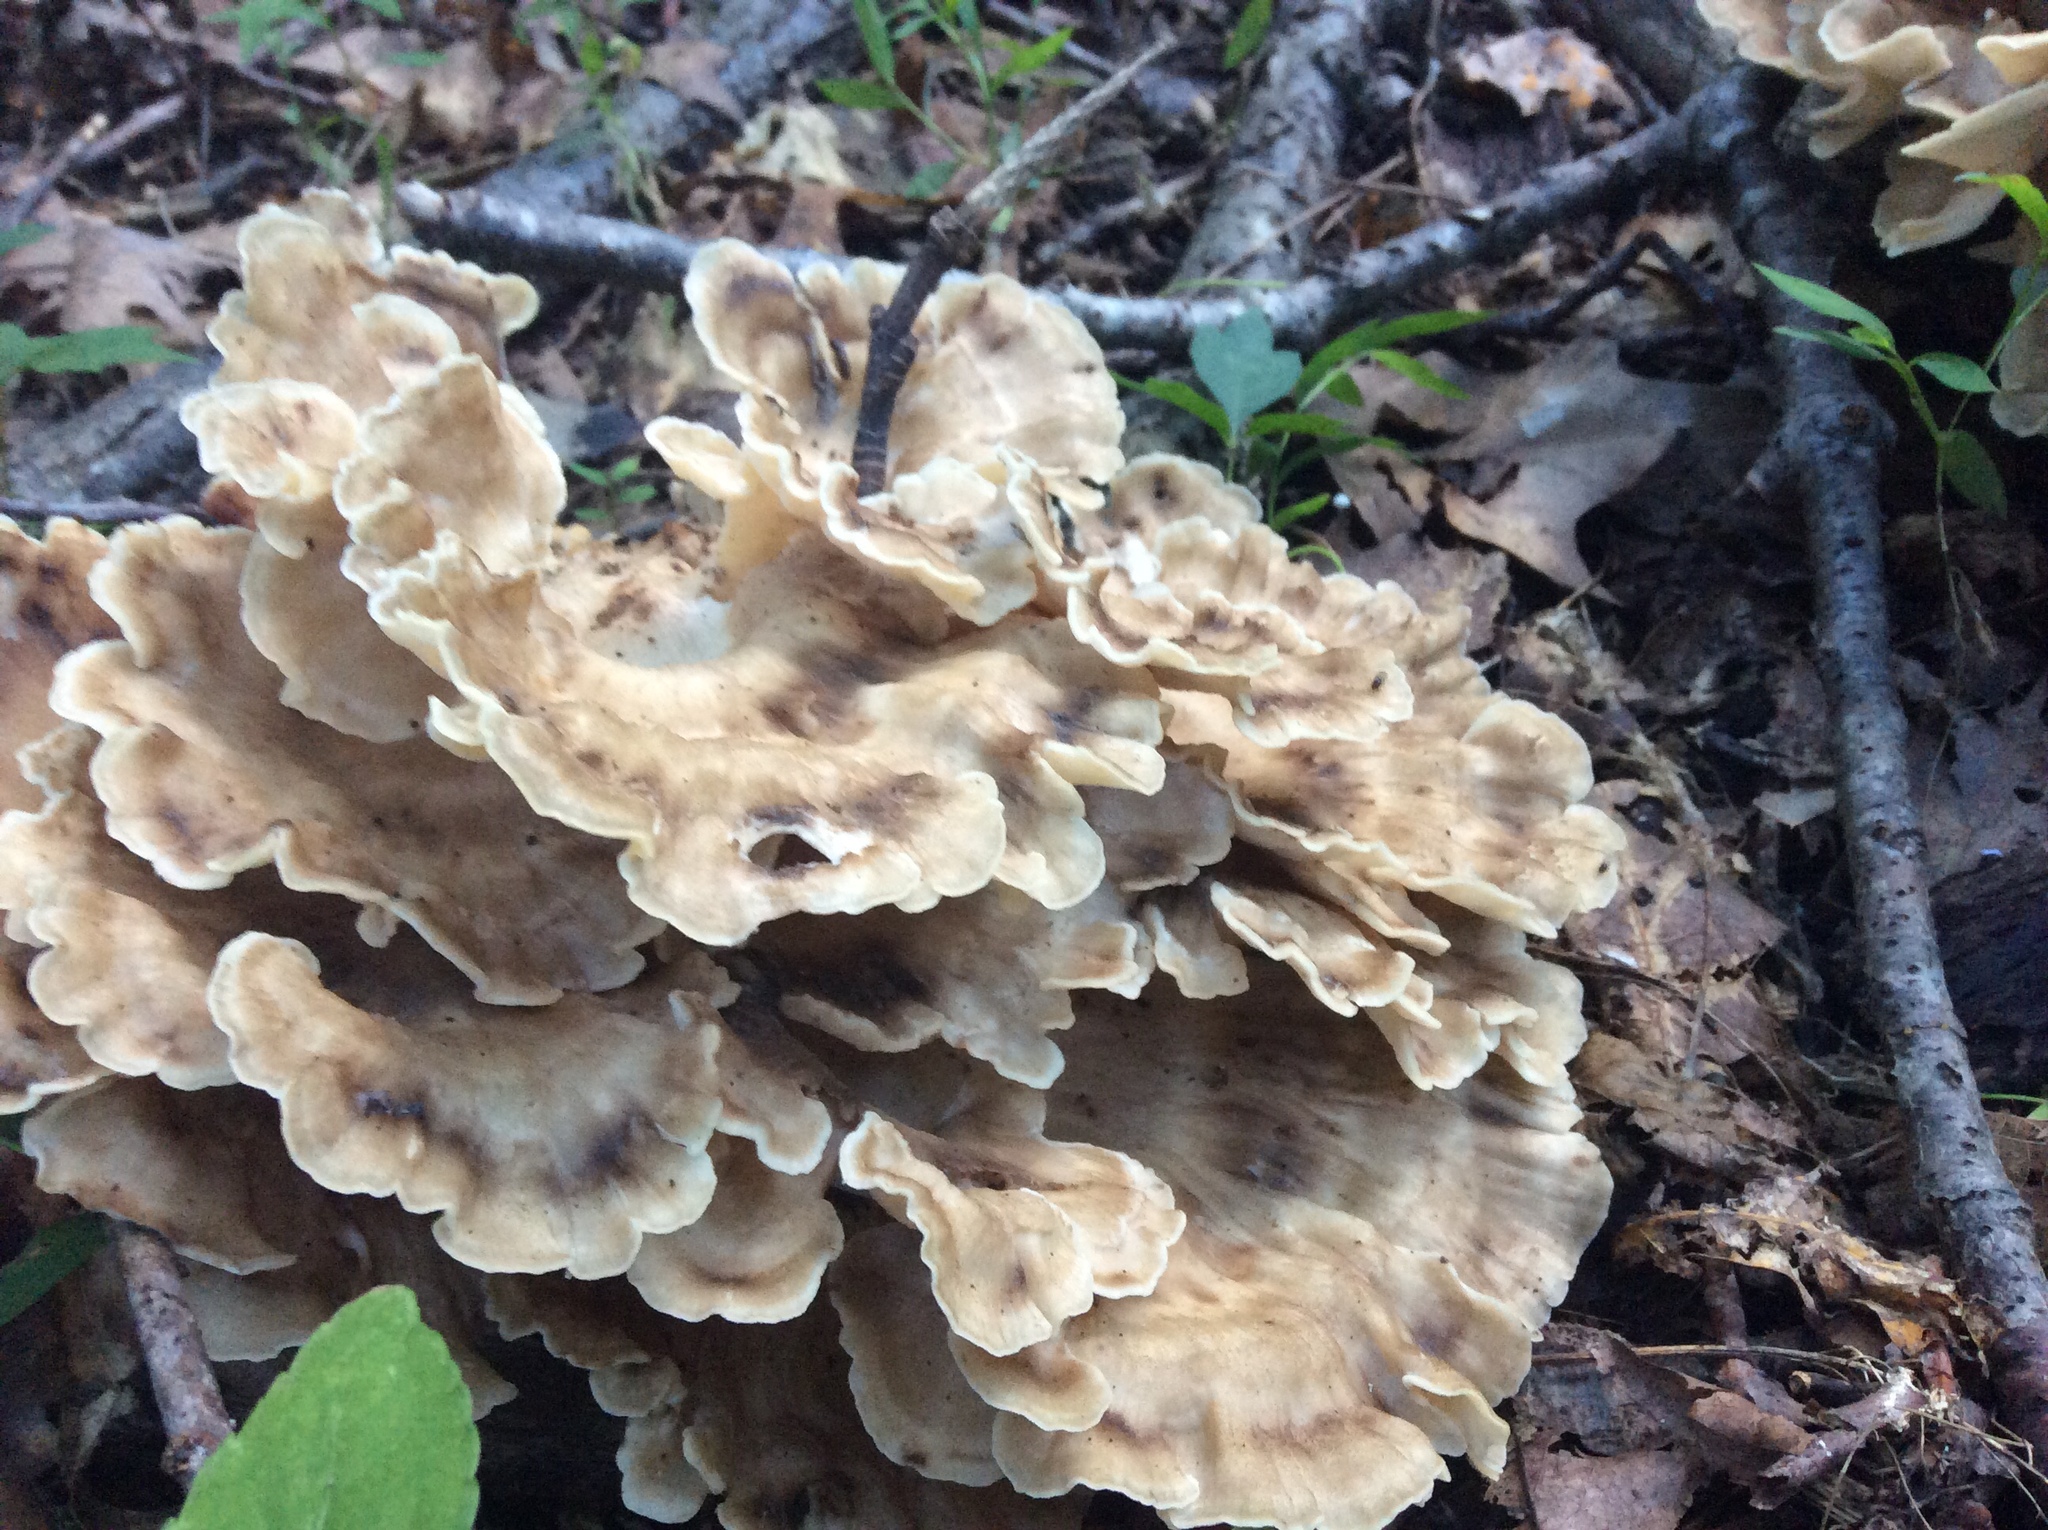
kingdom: Fungi
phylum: Basidiomycota
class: Agaricomycetes
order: Polyporales
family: Meripilaceae
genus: Meripilus
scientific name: Meripilus sumstinei
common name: Black-staining polypore
